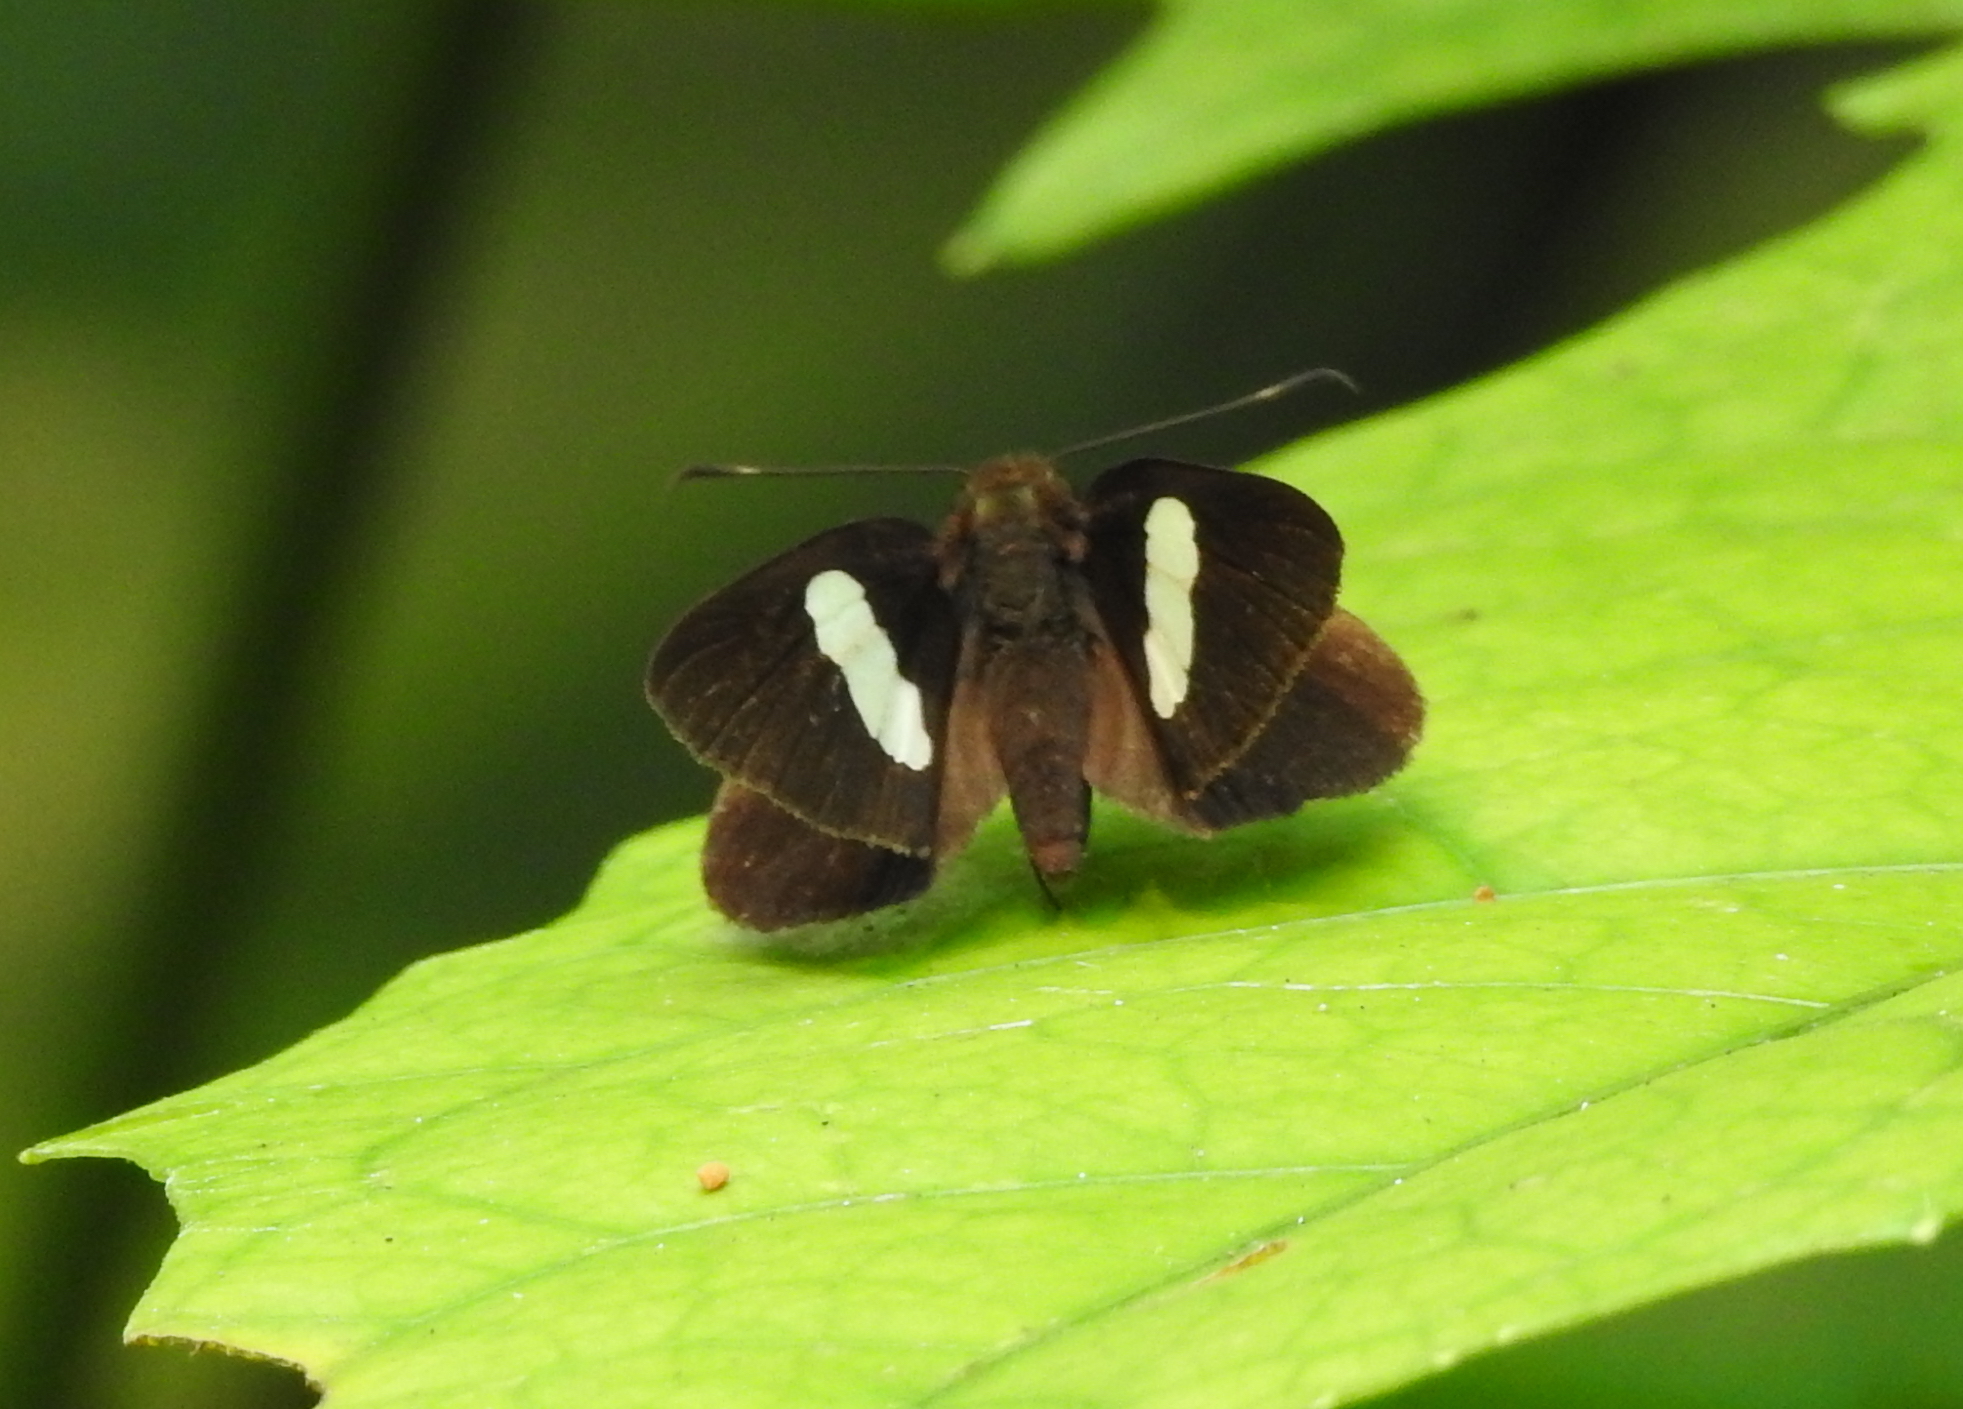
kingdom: Animalia
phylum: Arthropoda
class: Insecta
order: Lepidoptera
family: Hesperiidae
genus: Notocrypta
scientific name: Notocrypta paralysos
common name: Common banded demon
